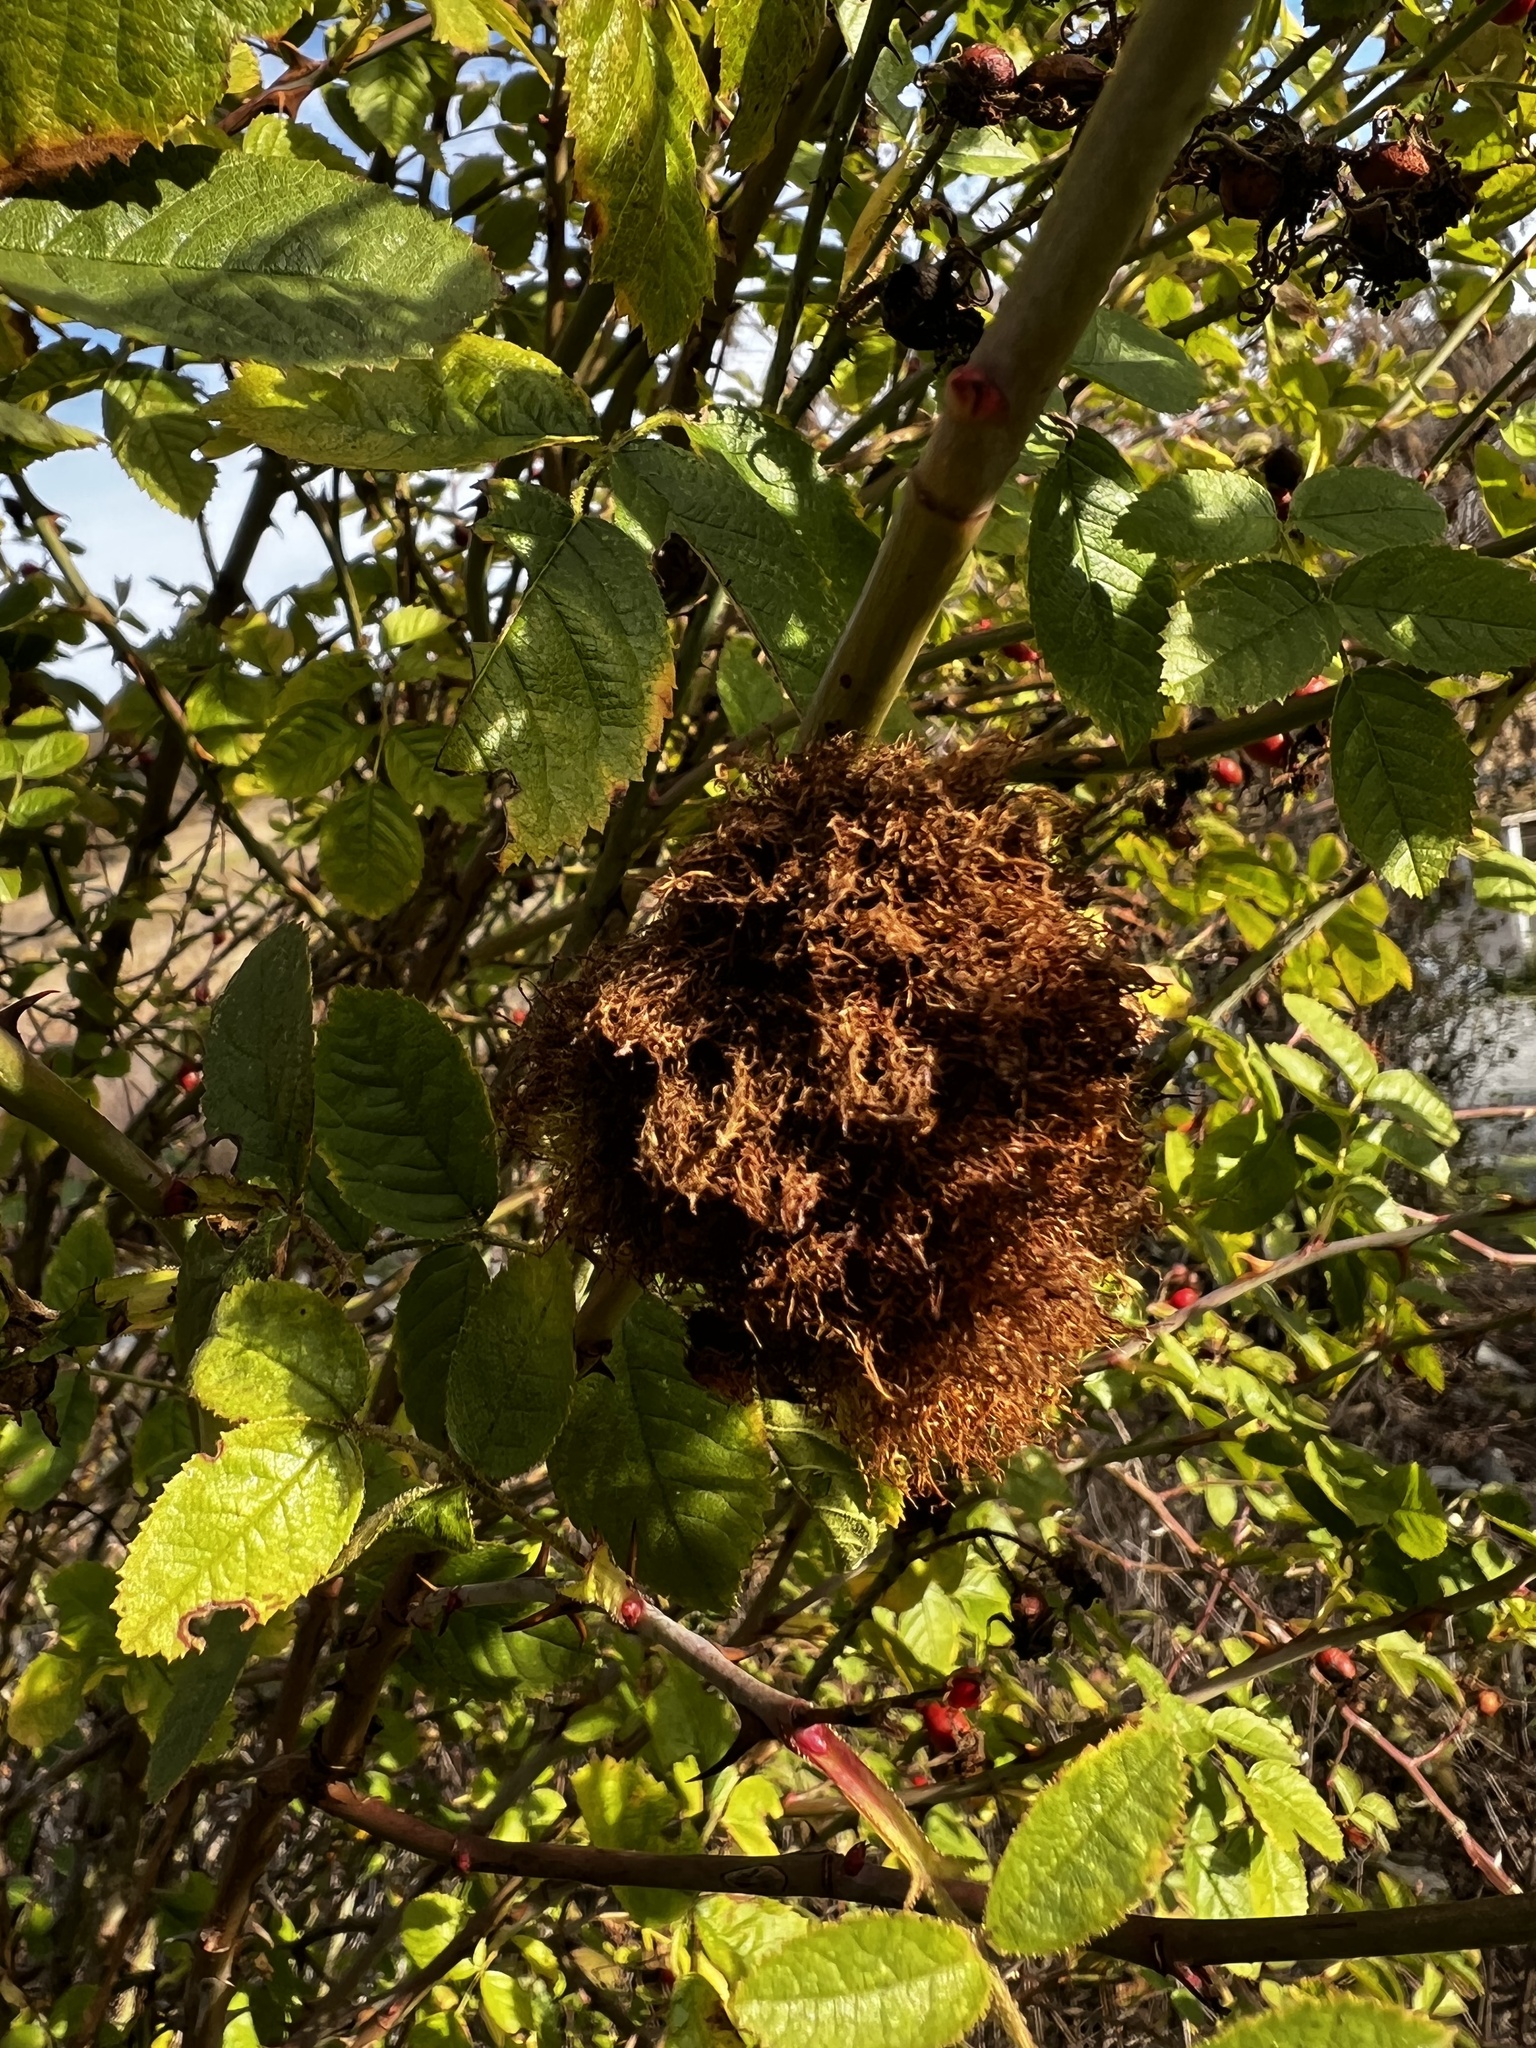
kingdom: Animalia
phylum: Arthropoda
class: Insecta
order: Hymenoptera
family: Cynipidae
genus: Diplolepis
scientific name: Diplolepis rosae
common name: Bedeguar gall
